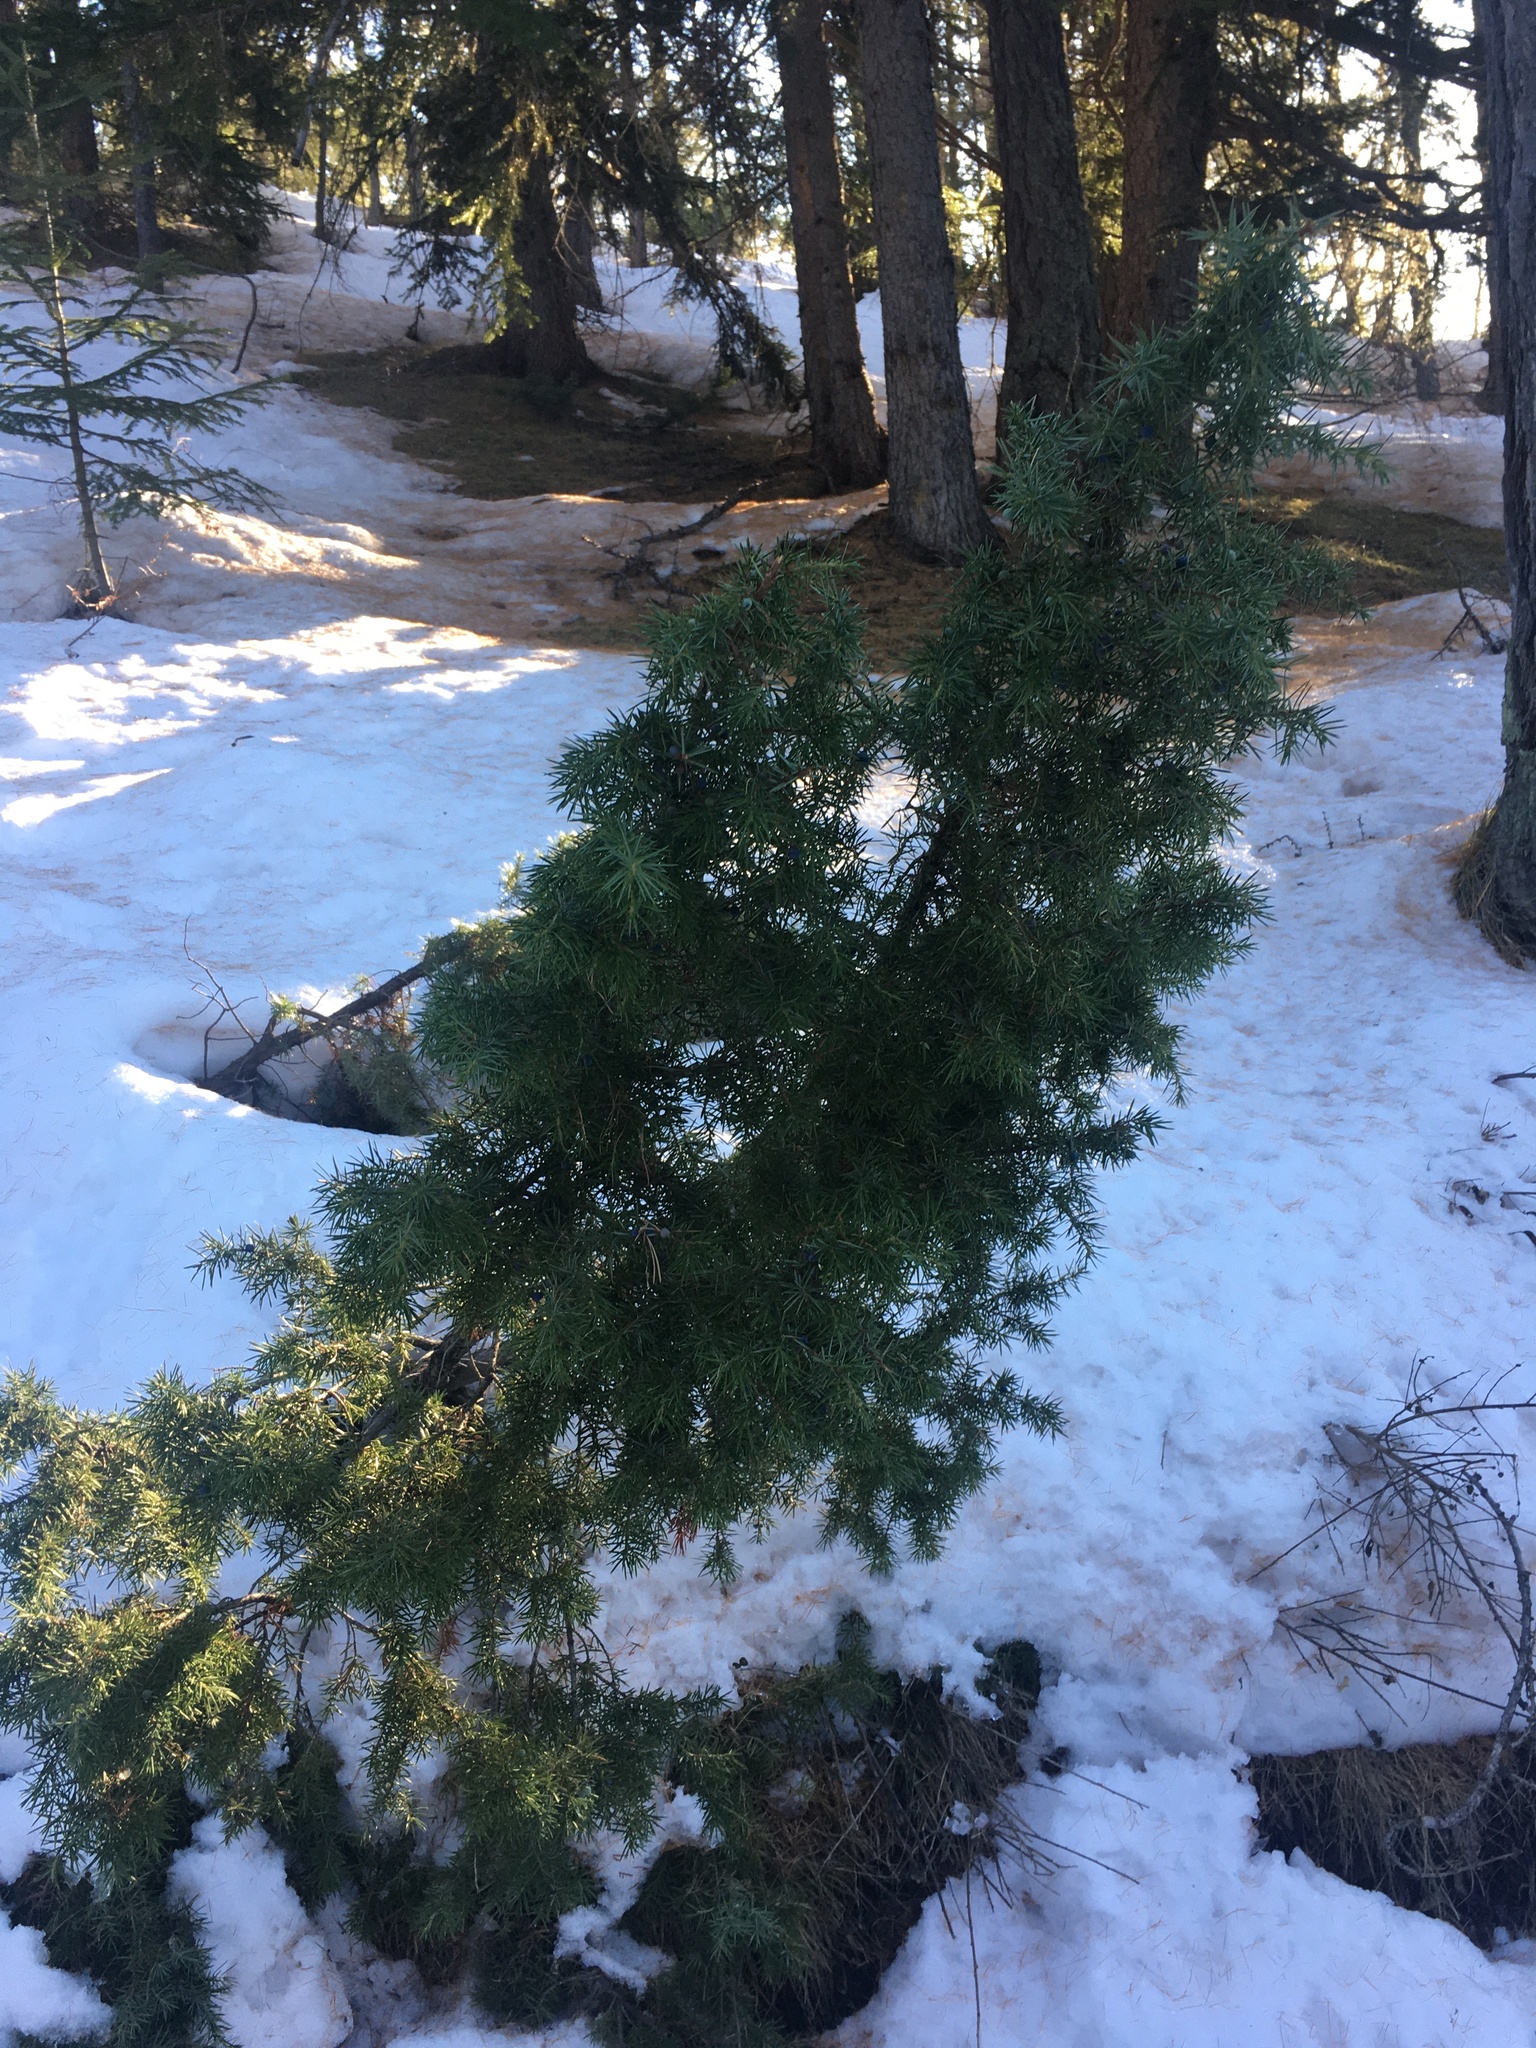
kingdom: Plantae
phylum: Tracheophyta
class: Pinopsida
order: Pinales
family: Cupressaceae
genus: Juniperus
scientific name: Juniperus communis
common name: Common juniper
